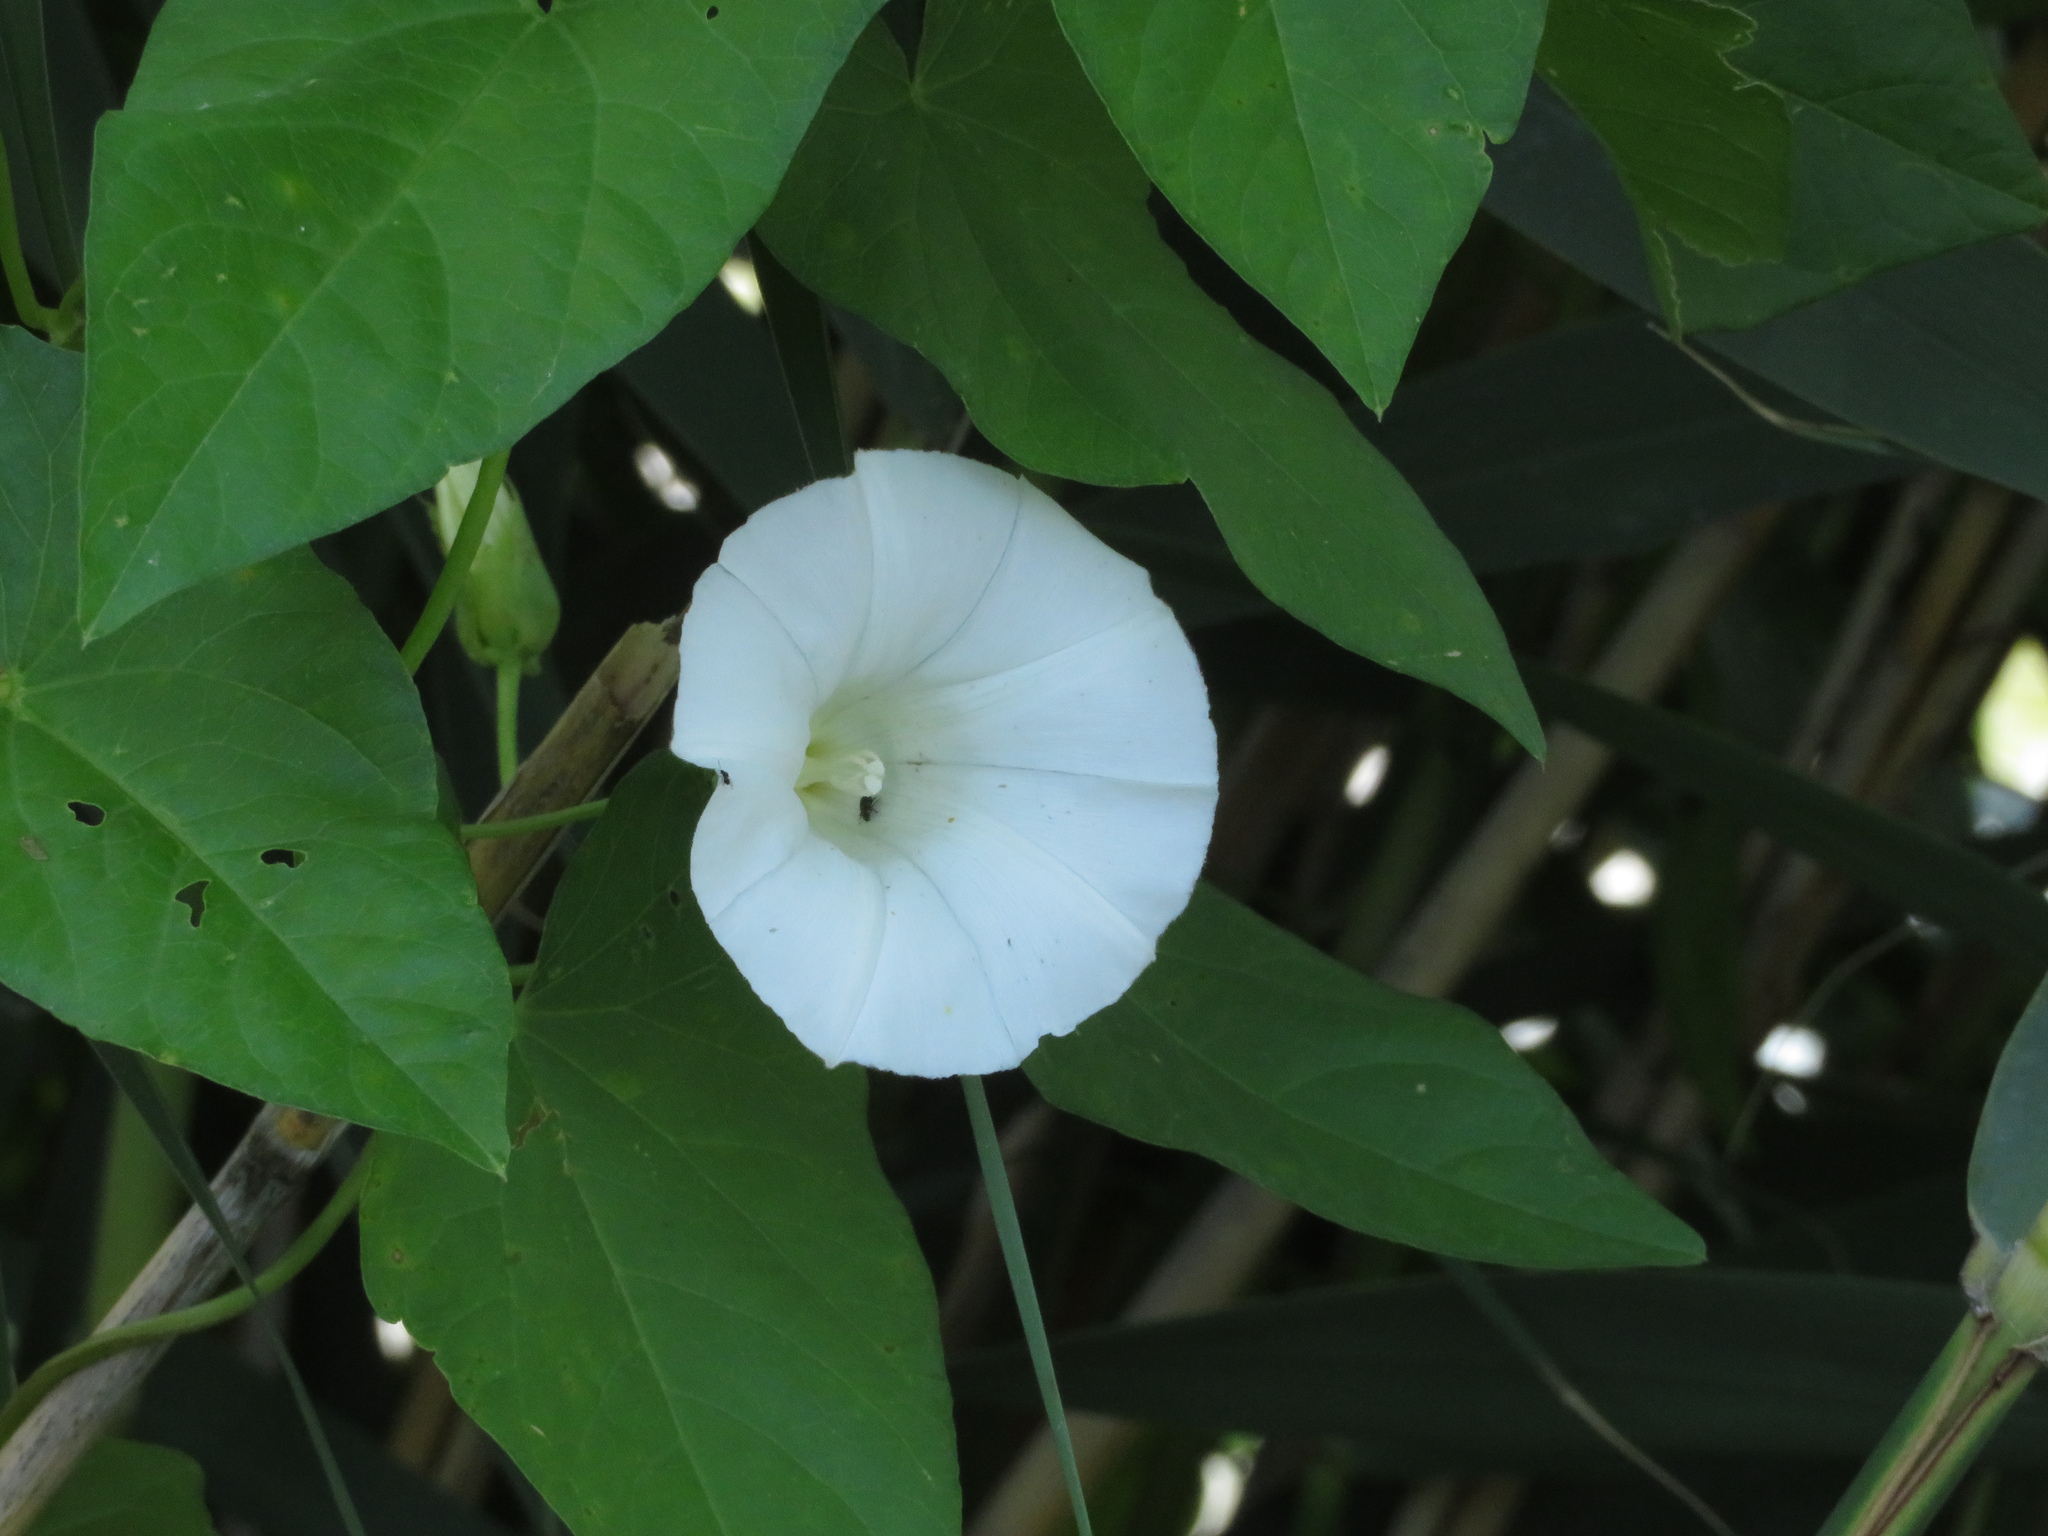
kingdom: Plantae
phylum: Tracheophyta
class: Magnoliopsida
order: Solanales
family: Convolvulaceae
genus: Calystegia
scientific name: Calystegia sepium
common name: Hedge bindweed
